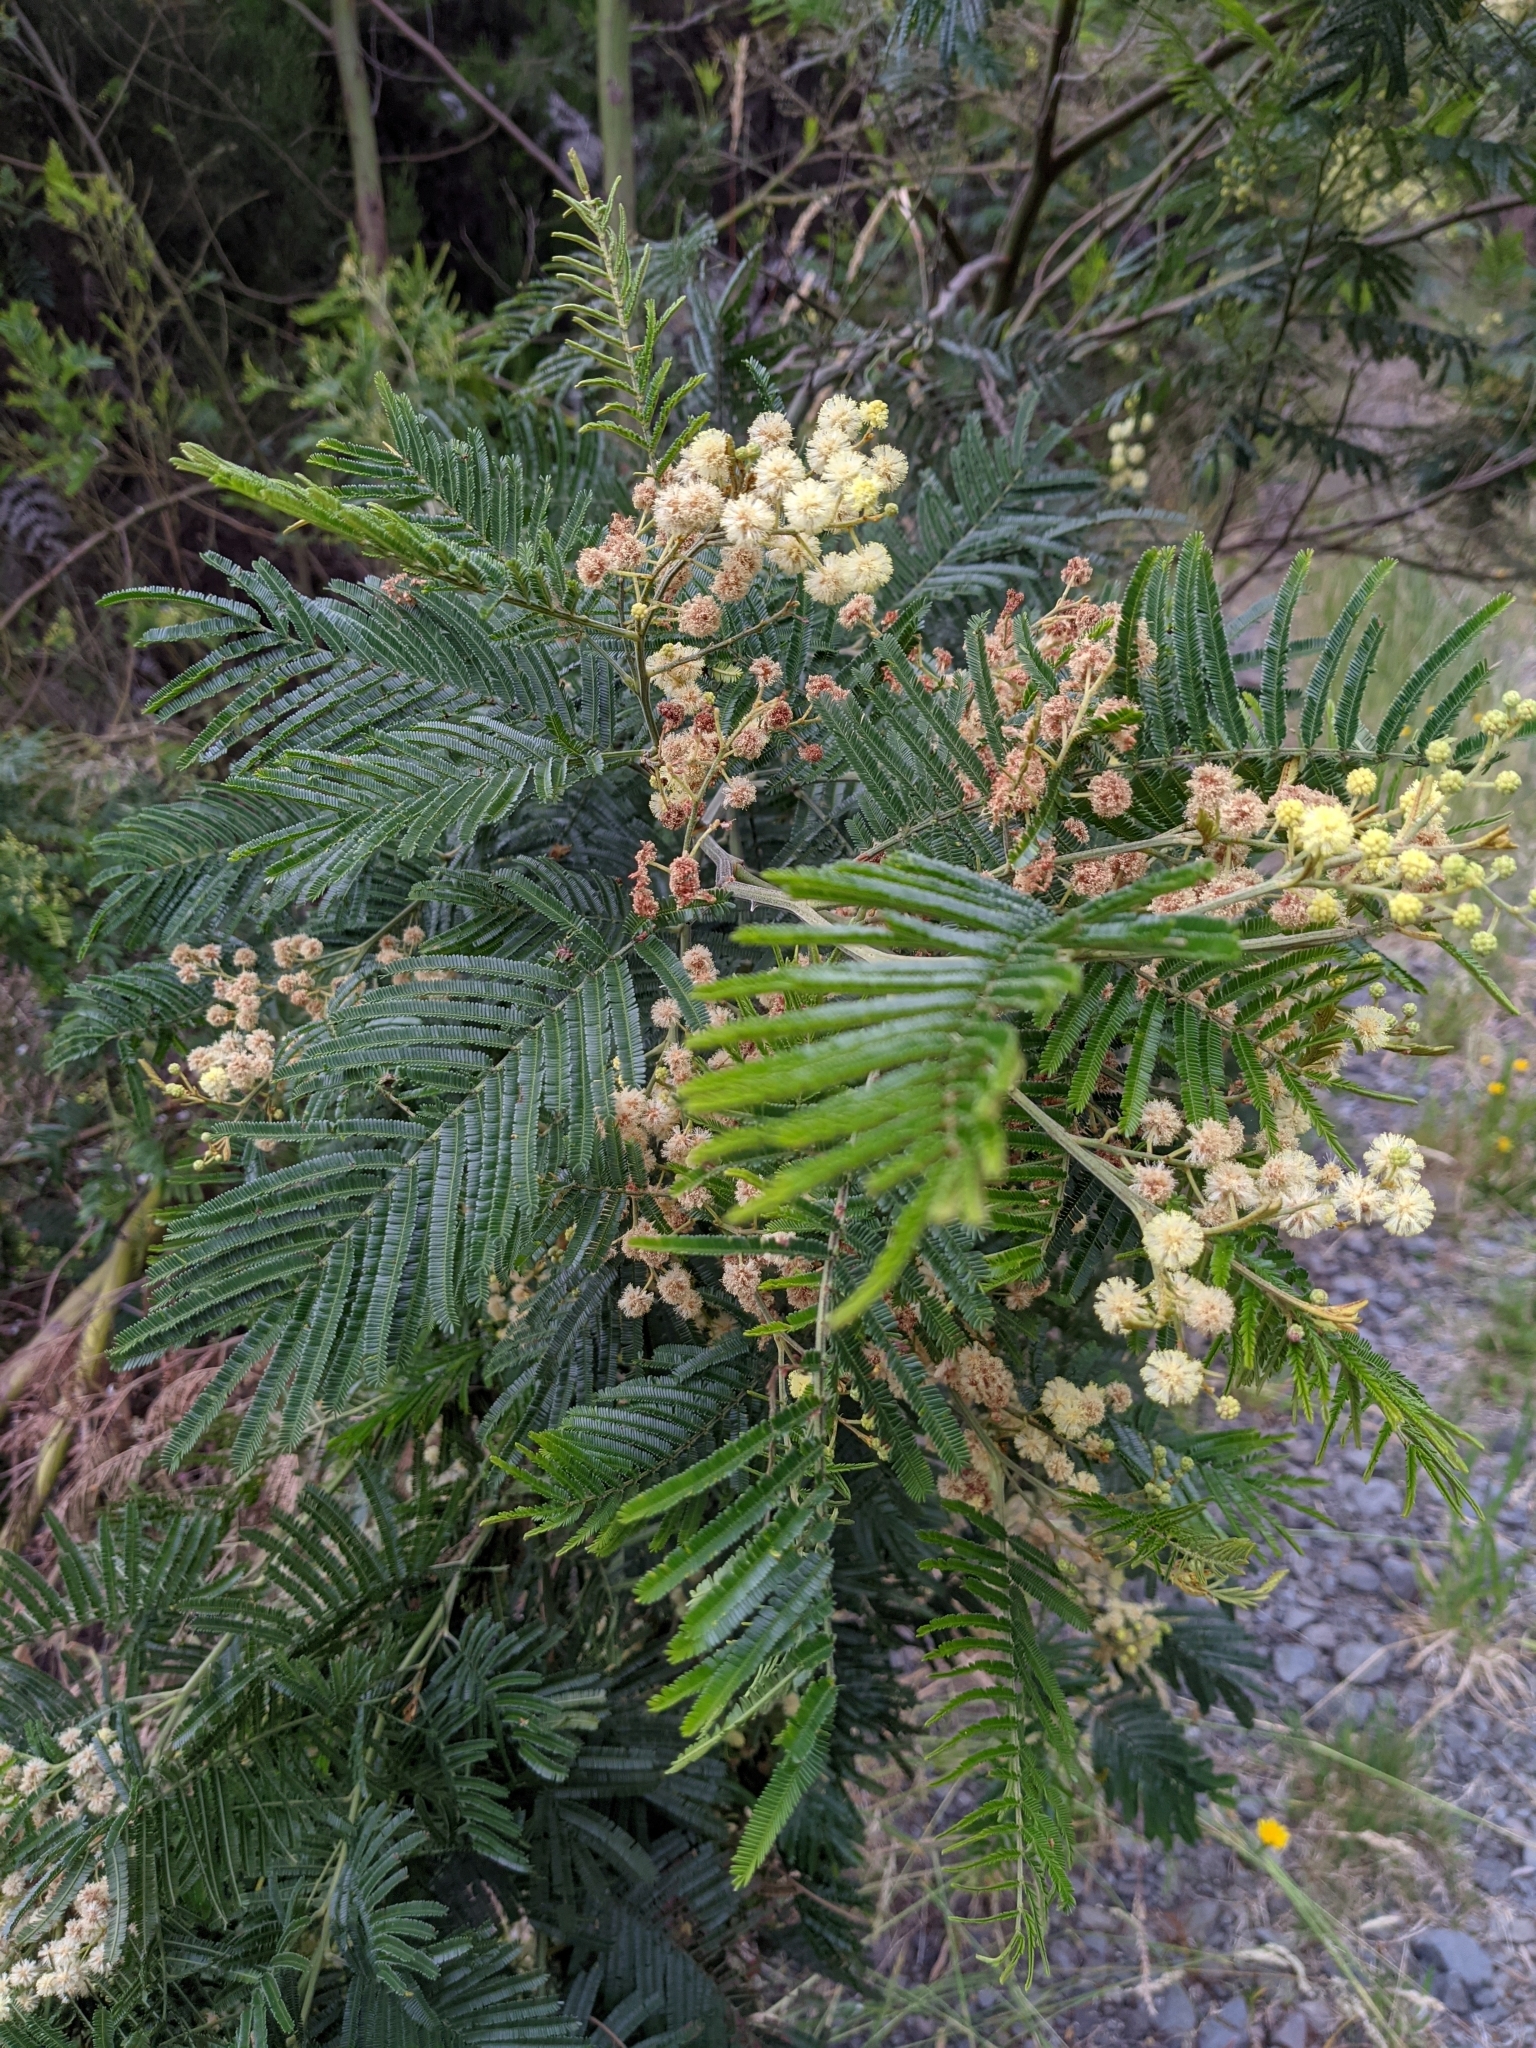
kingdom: Plantae
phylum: Tracheophyta
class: Magnoliopsida
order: Fabales
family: Fabaceae
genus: Acacia
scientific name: Acacia mearnsii
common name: Black wattle
